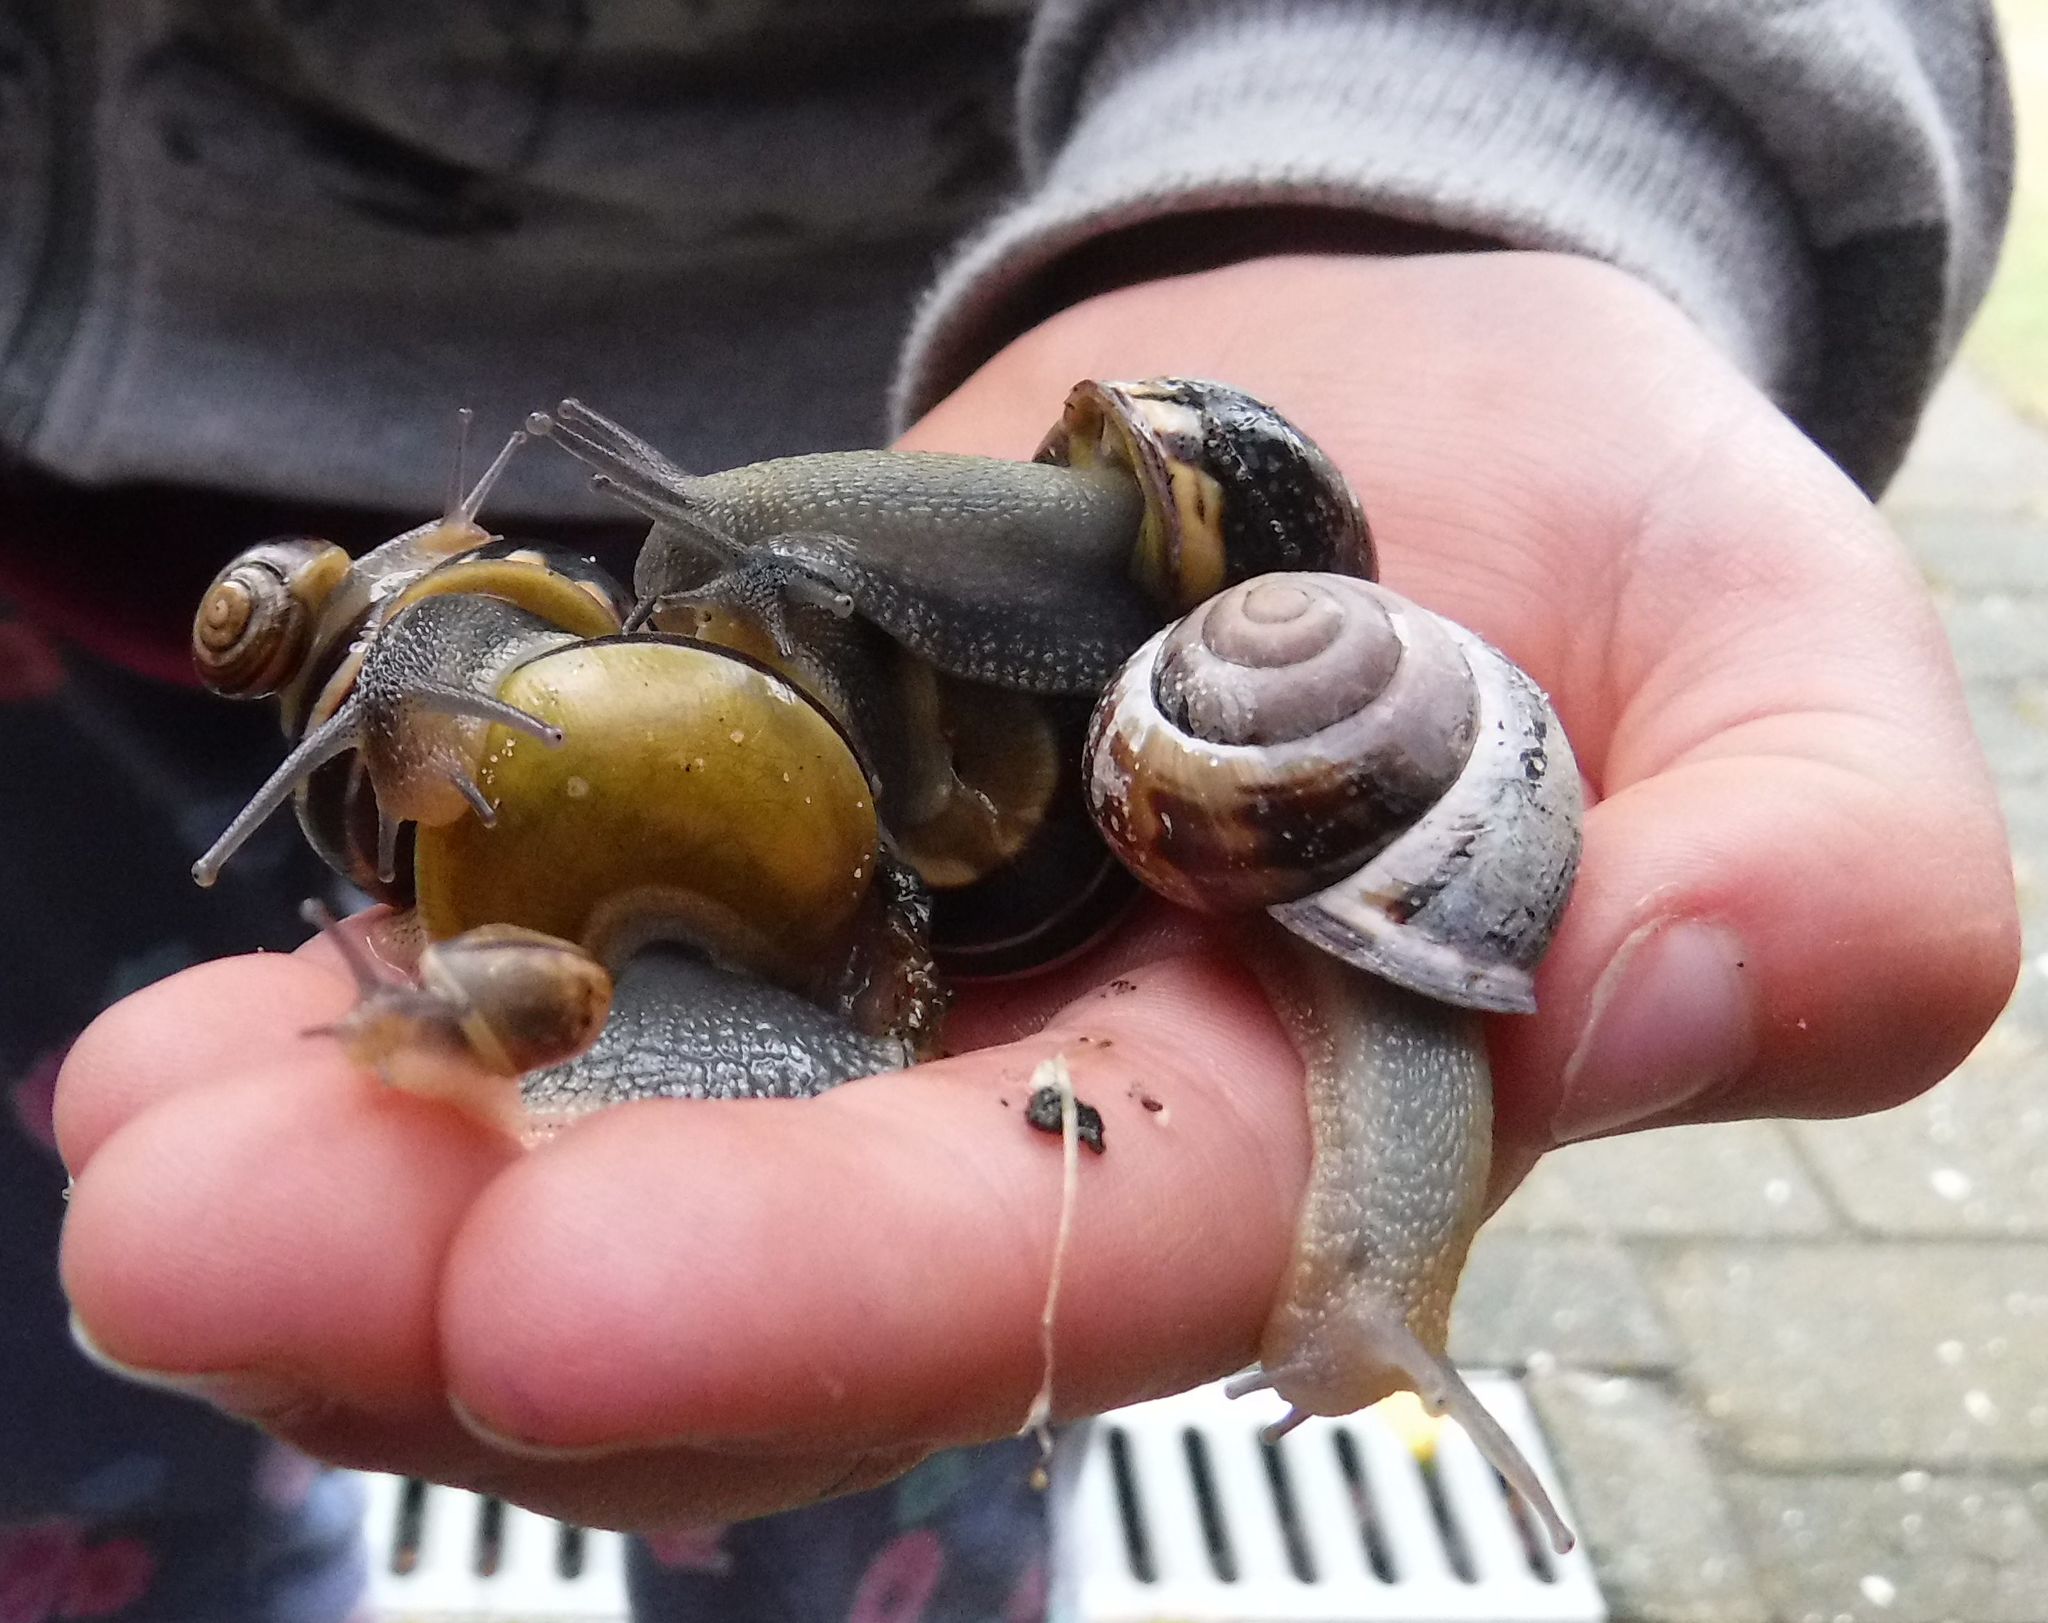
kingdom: Animalia
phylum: Mollusca
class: Gastropoda
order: Stylommatophora
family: Helicidae
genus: Cepaea
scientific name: Cepaea nemoralis
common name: Grovesnail
